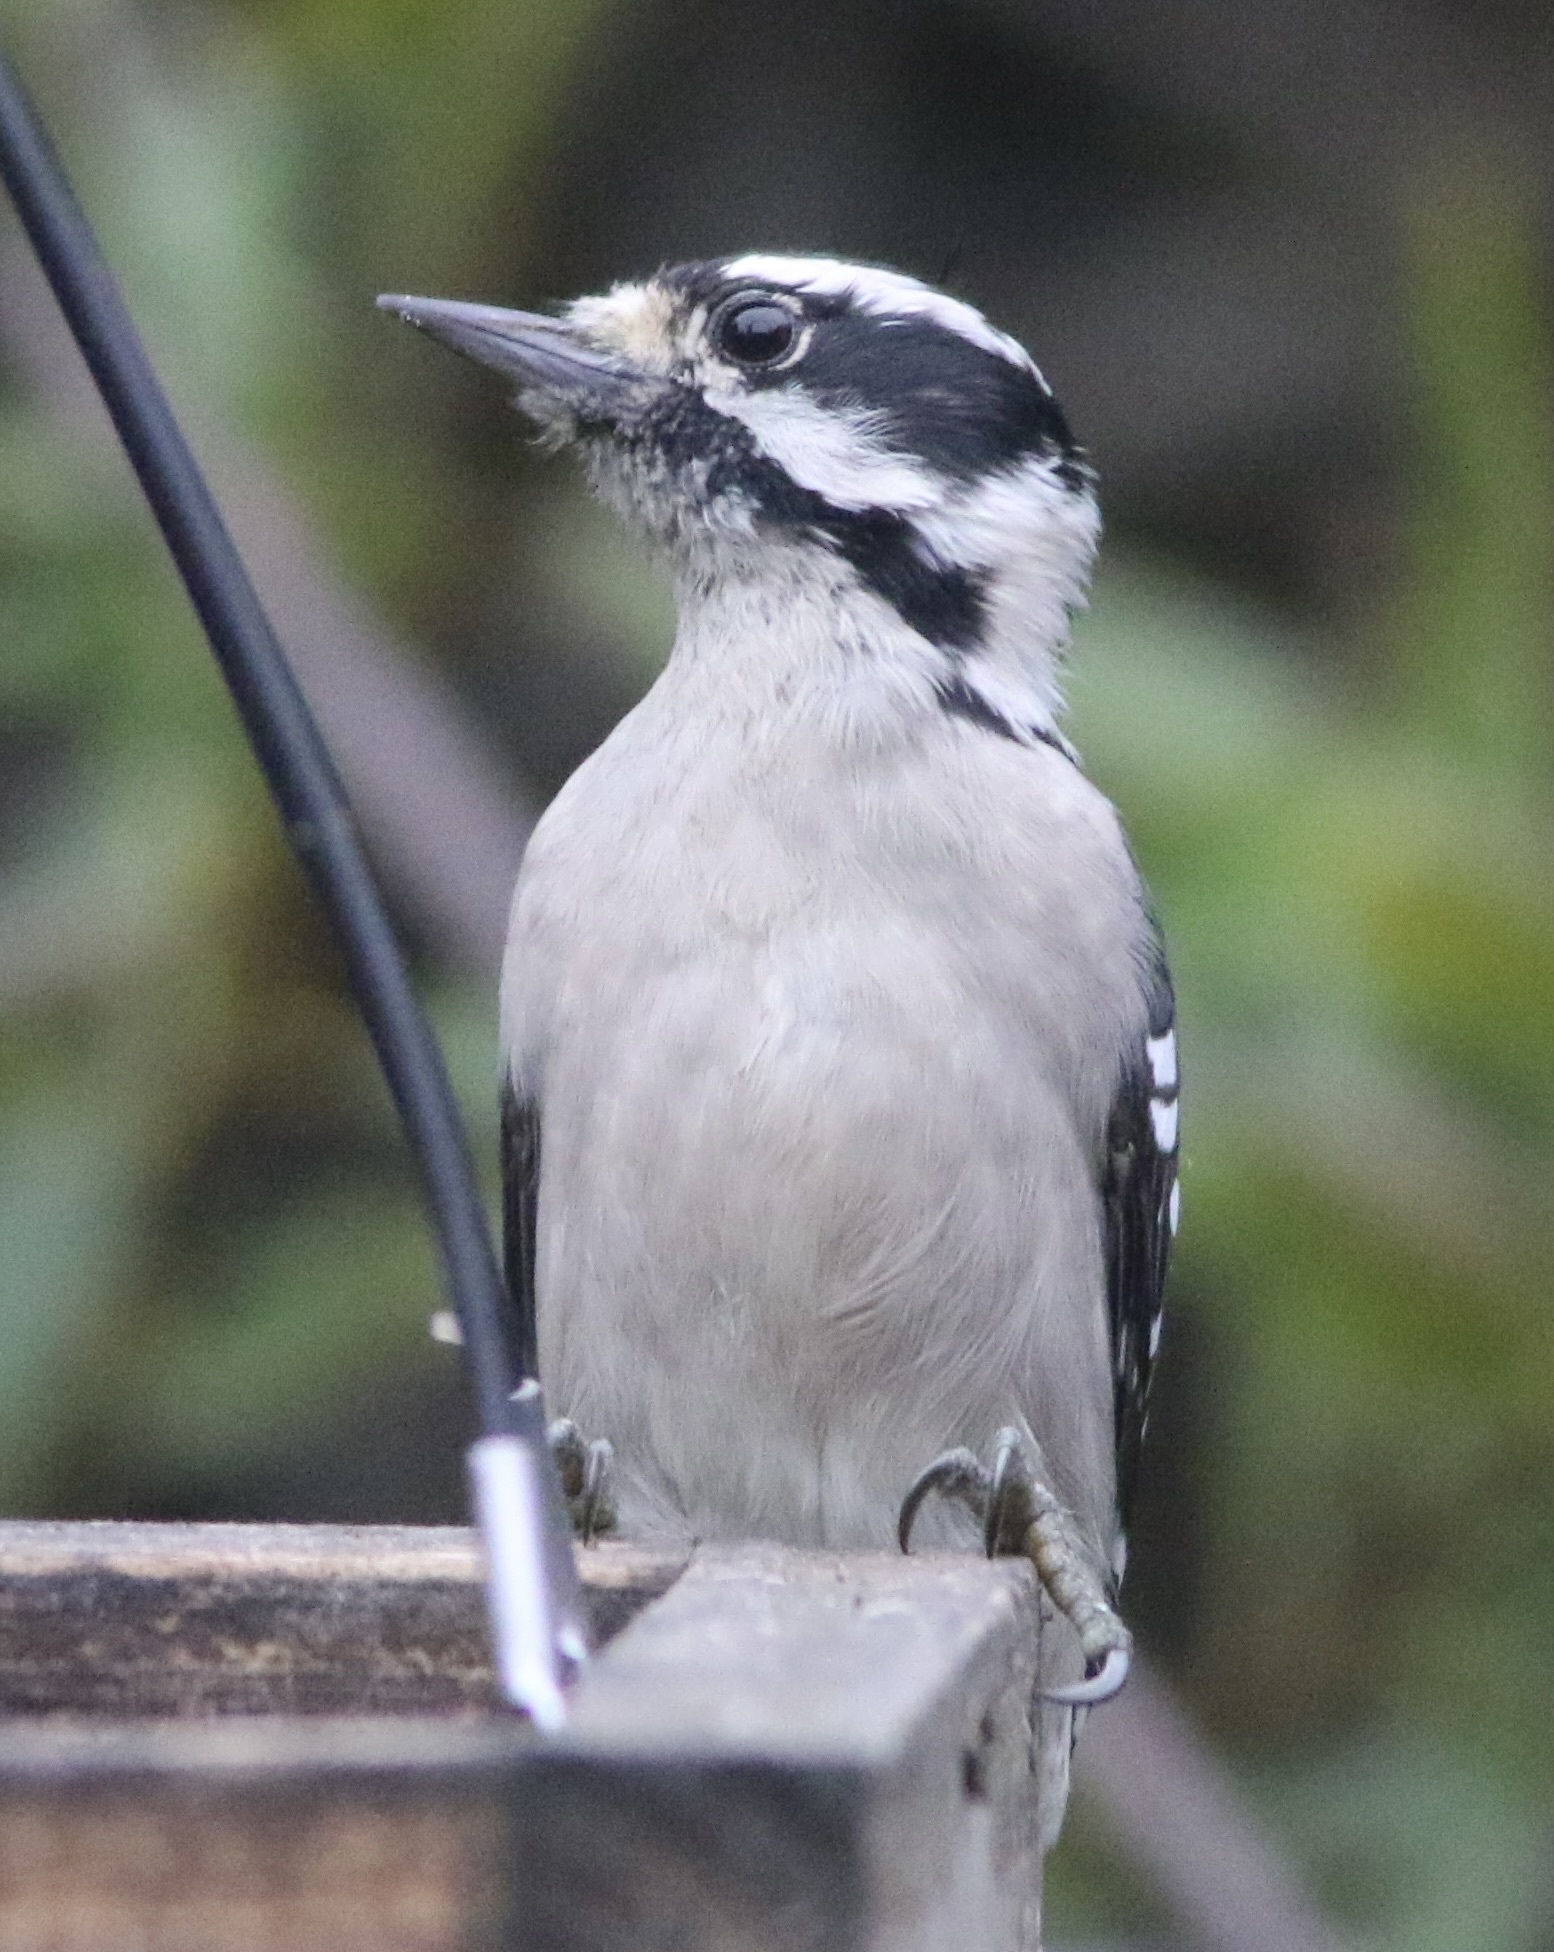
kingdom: Animalia
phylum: Chordata
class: Aves
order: Piciformes
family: Picidae
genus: Dryobates
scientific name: Dryobates pubescens
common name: Downy woodpecker
